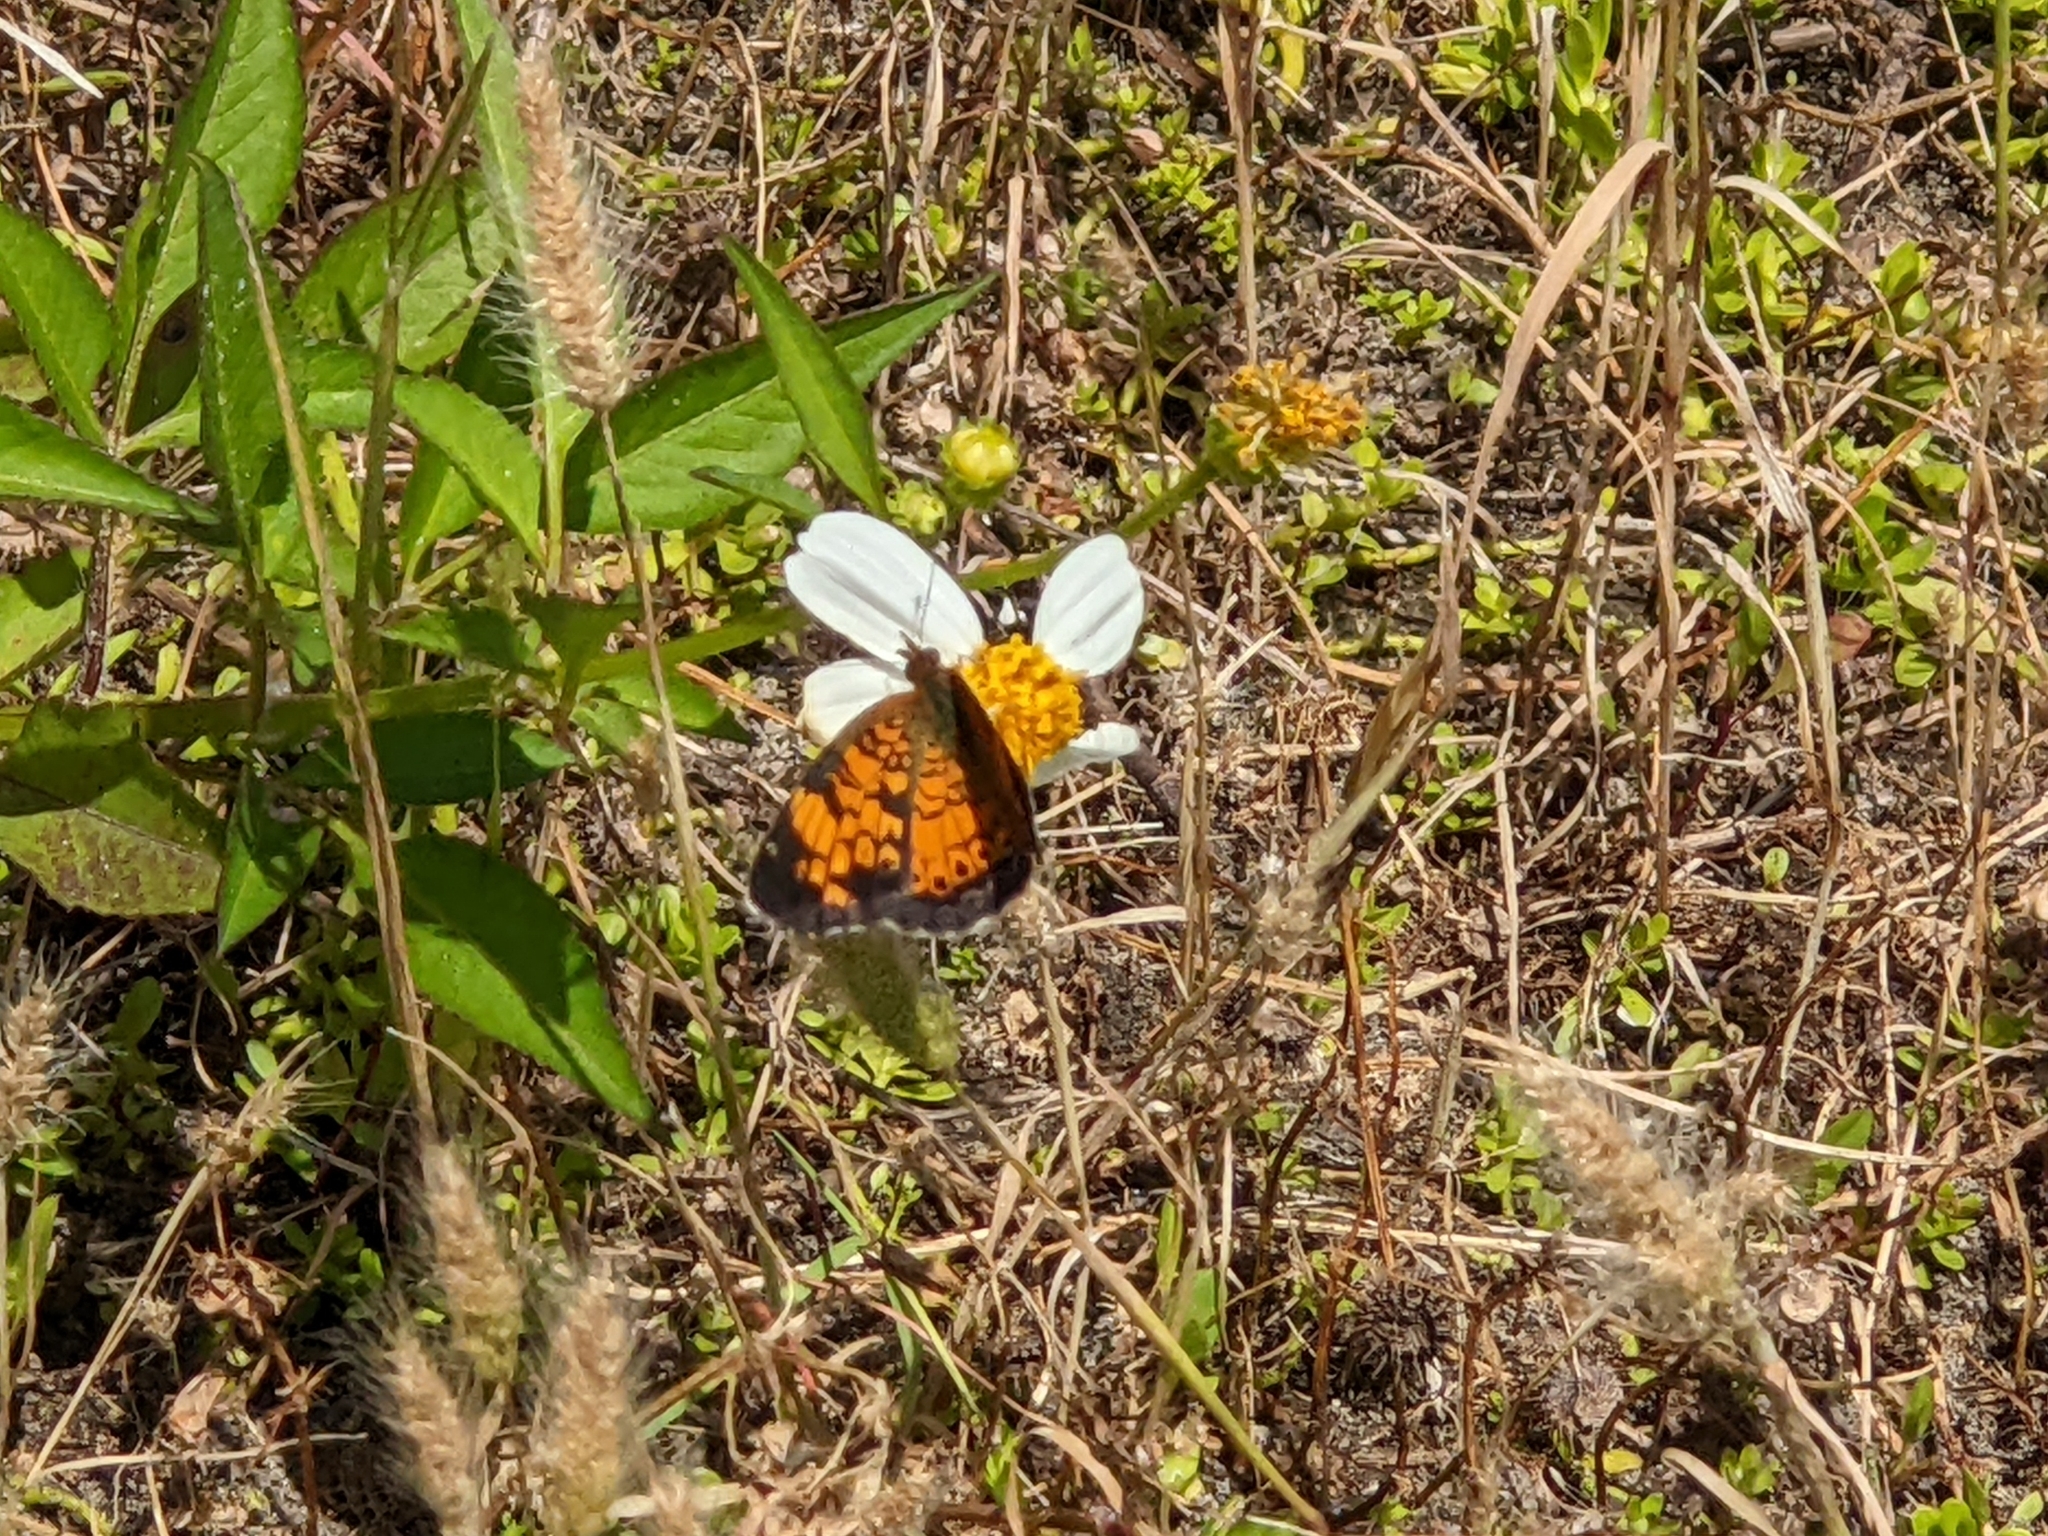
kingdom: Animalia
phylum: Arthropoda
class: Insecta
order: Lepidoptera
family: Nymphalidae
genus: Phyciodes
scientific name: Phyciodes tharos
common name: Pearl crescent
